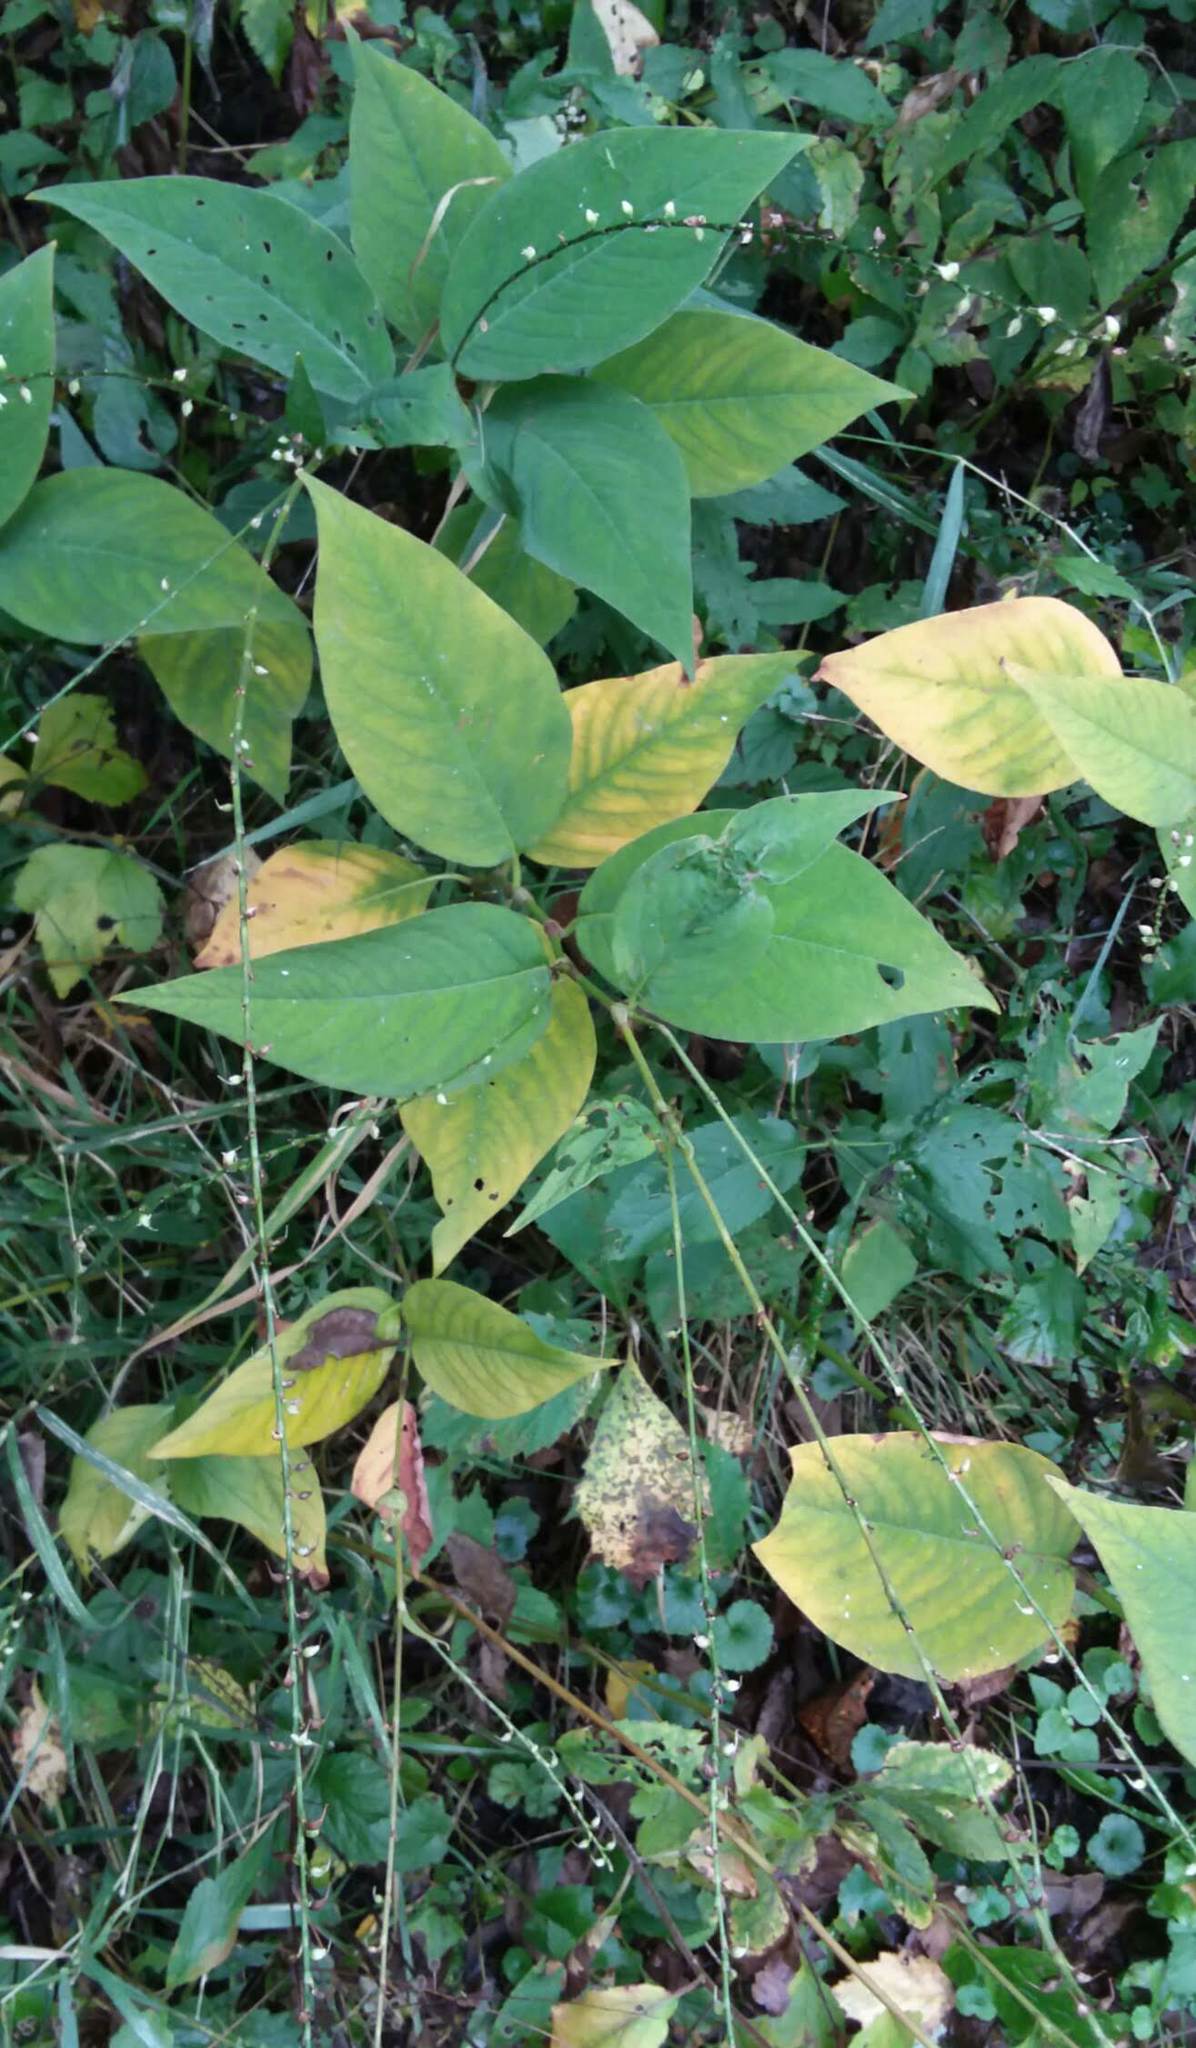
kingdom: Plantae
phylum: Tracheophyta
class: Magnoliopsida
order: Caryophyllales
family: Polygonaceae
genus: Persicaria
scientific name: Persicaria virginiana
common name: Jumpseed
